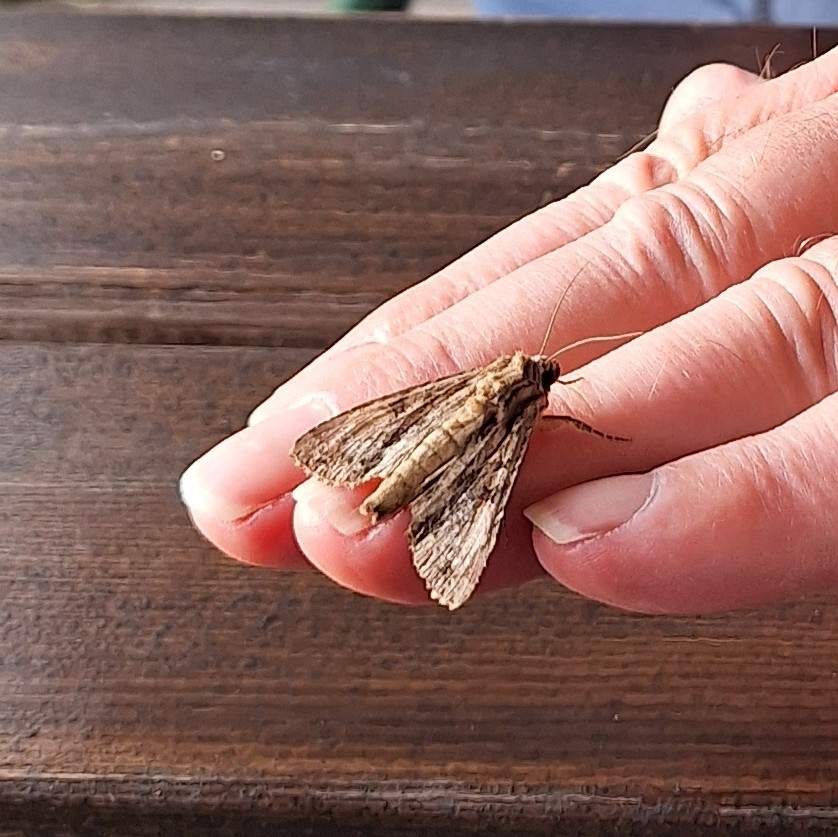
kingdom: Animalia
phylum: Arthropoda
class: Insecta
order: Lepidoptera
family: Noctuidae
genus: Apamea
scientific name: Apamea monoglypha
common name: Dark arches
